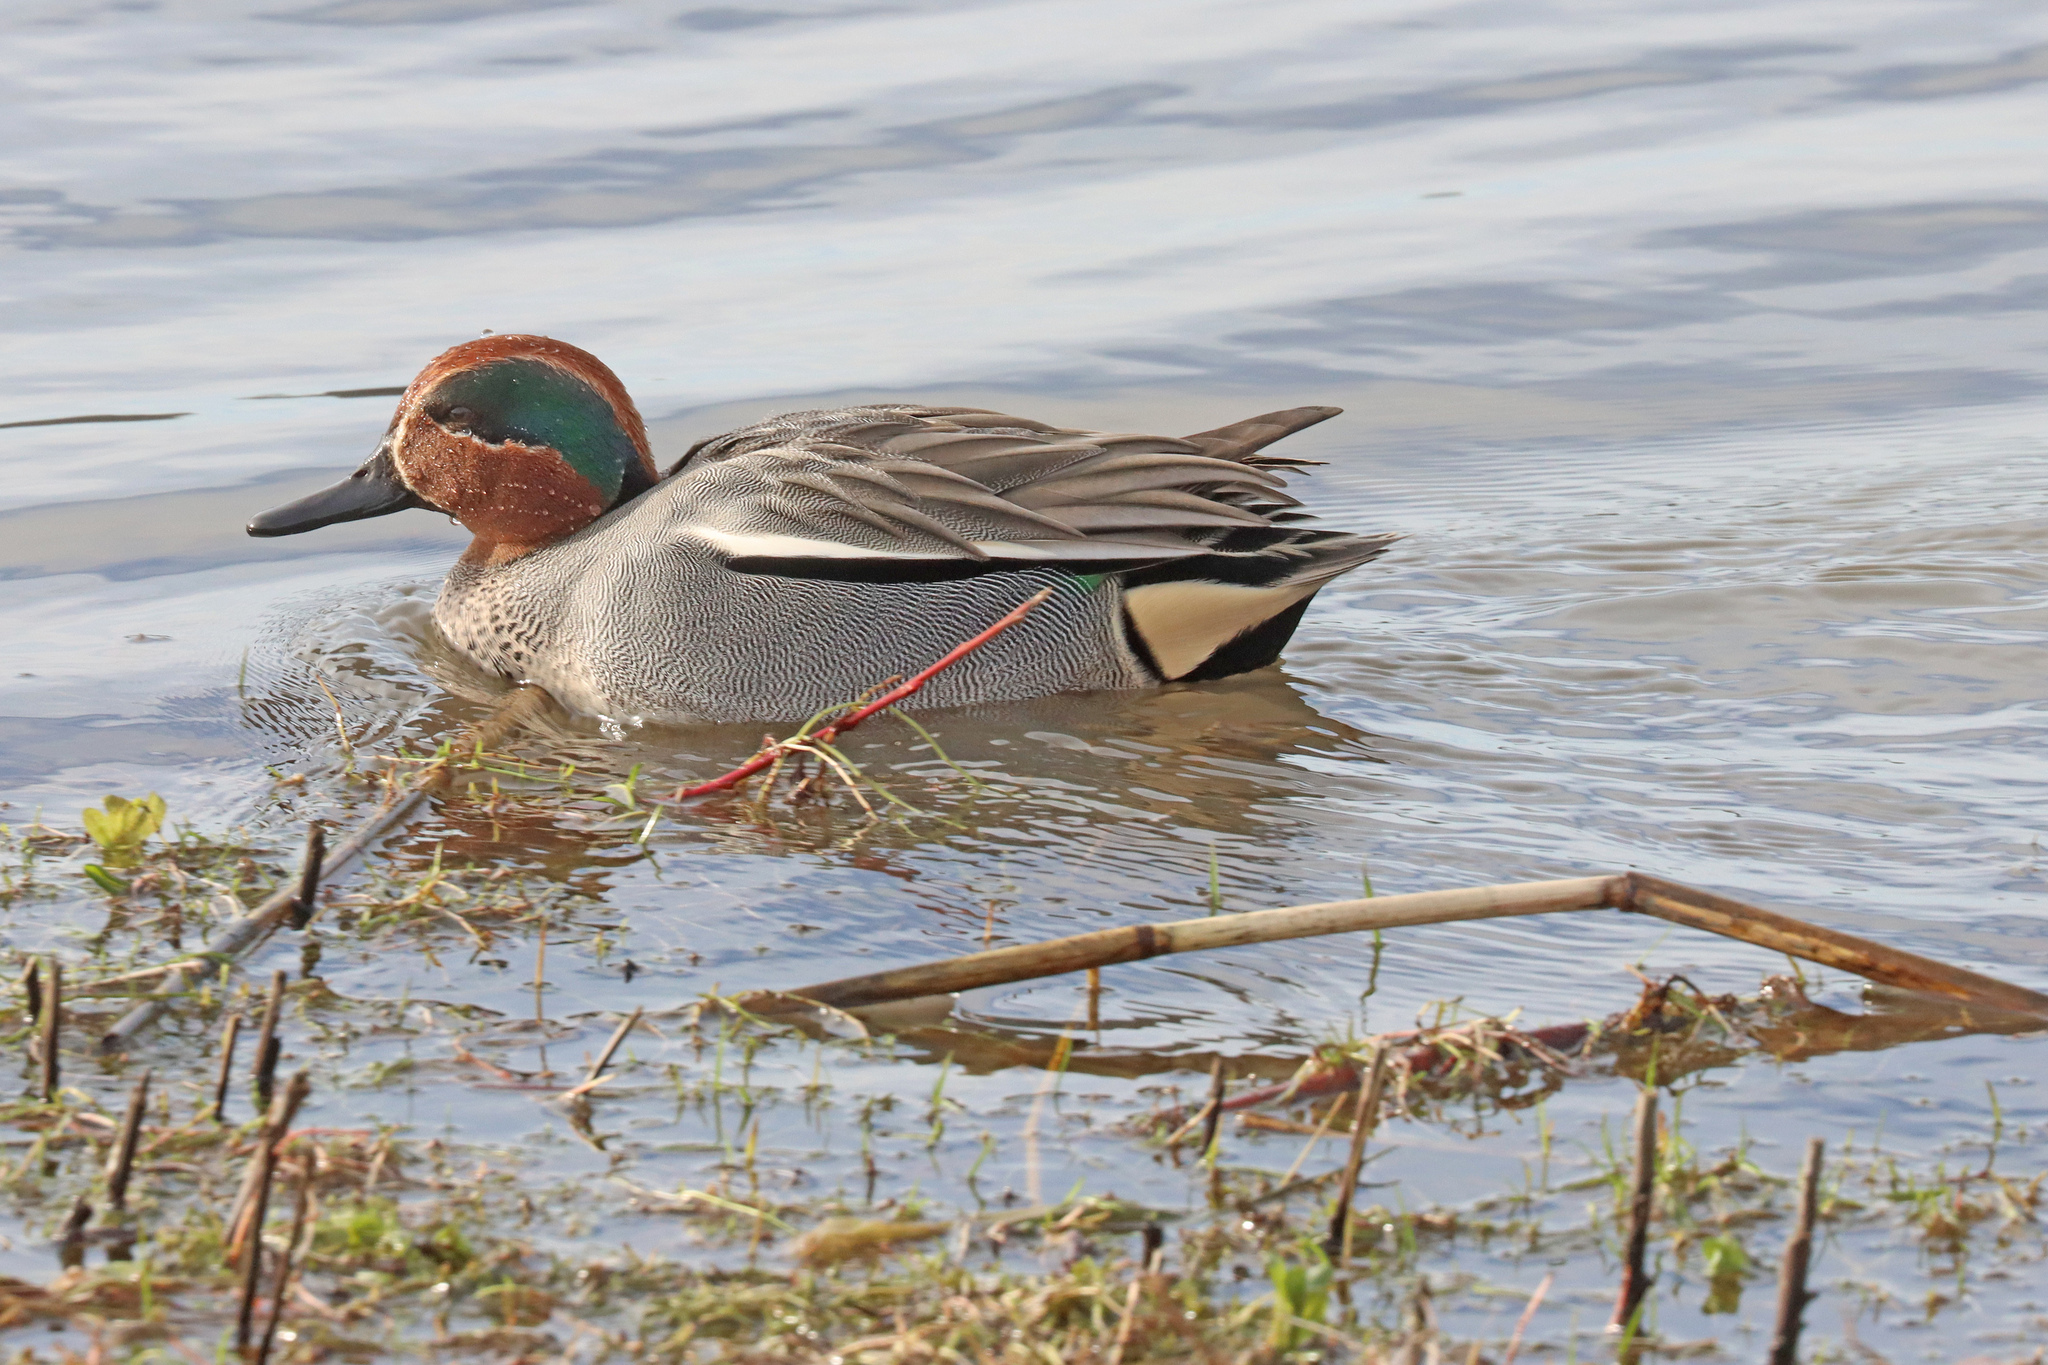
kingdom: Animalia
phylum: Chordata
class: Aves
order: Anseriformes
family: Anatidae
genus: Anas
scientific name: Anas crecca
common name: Eurasian teal
